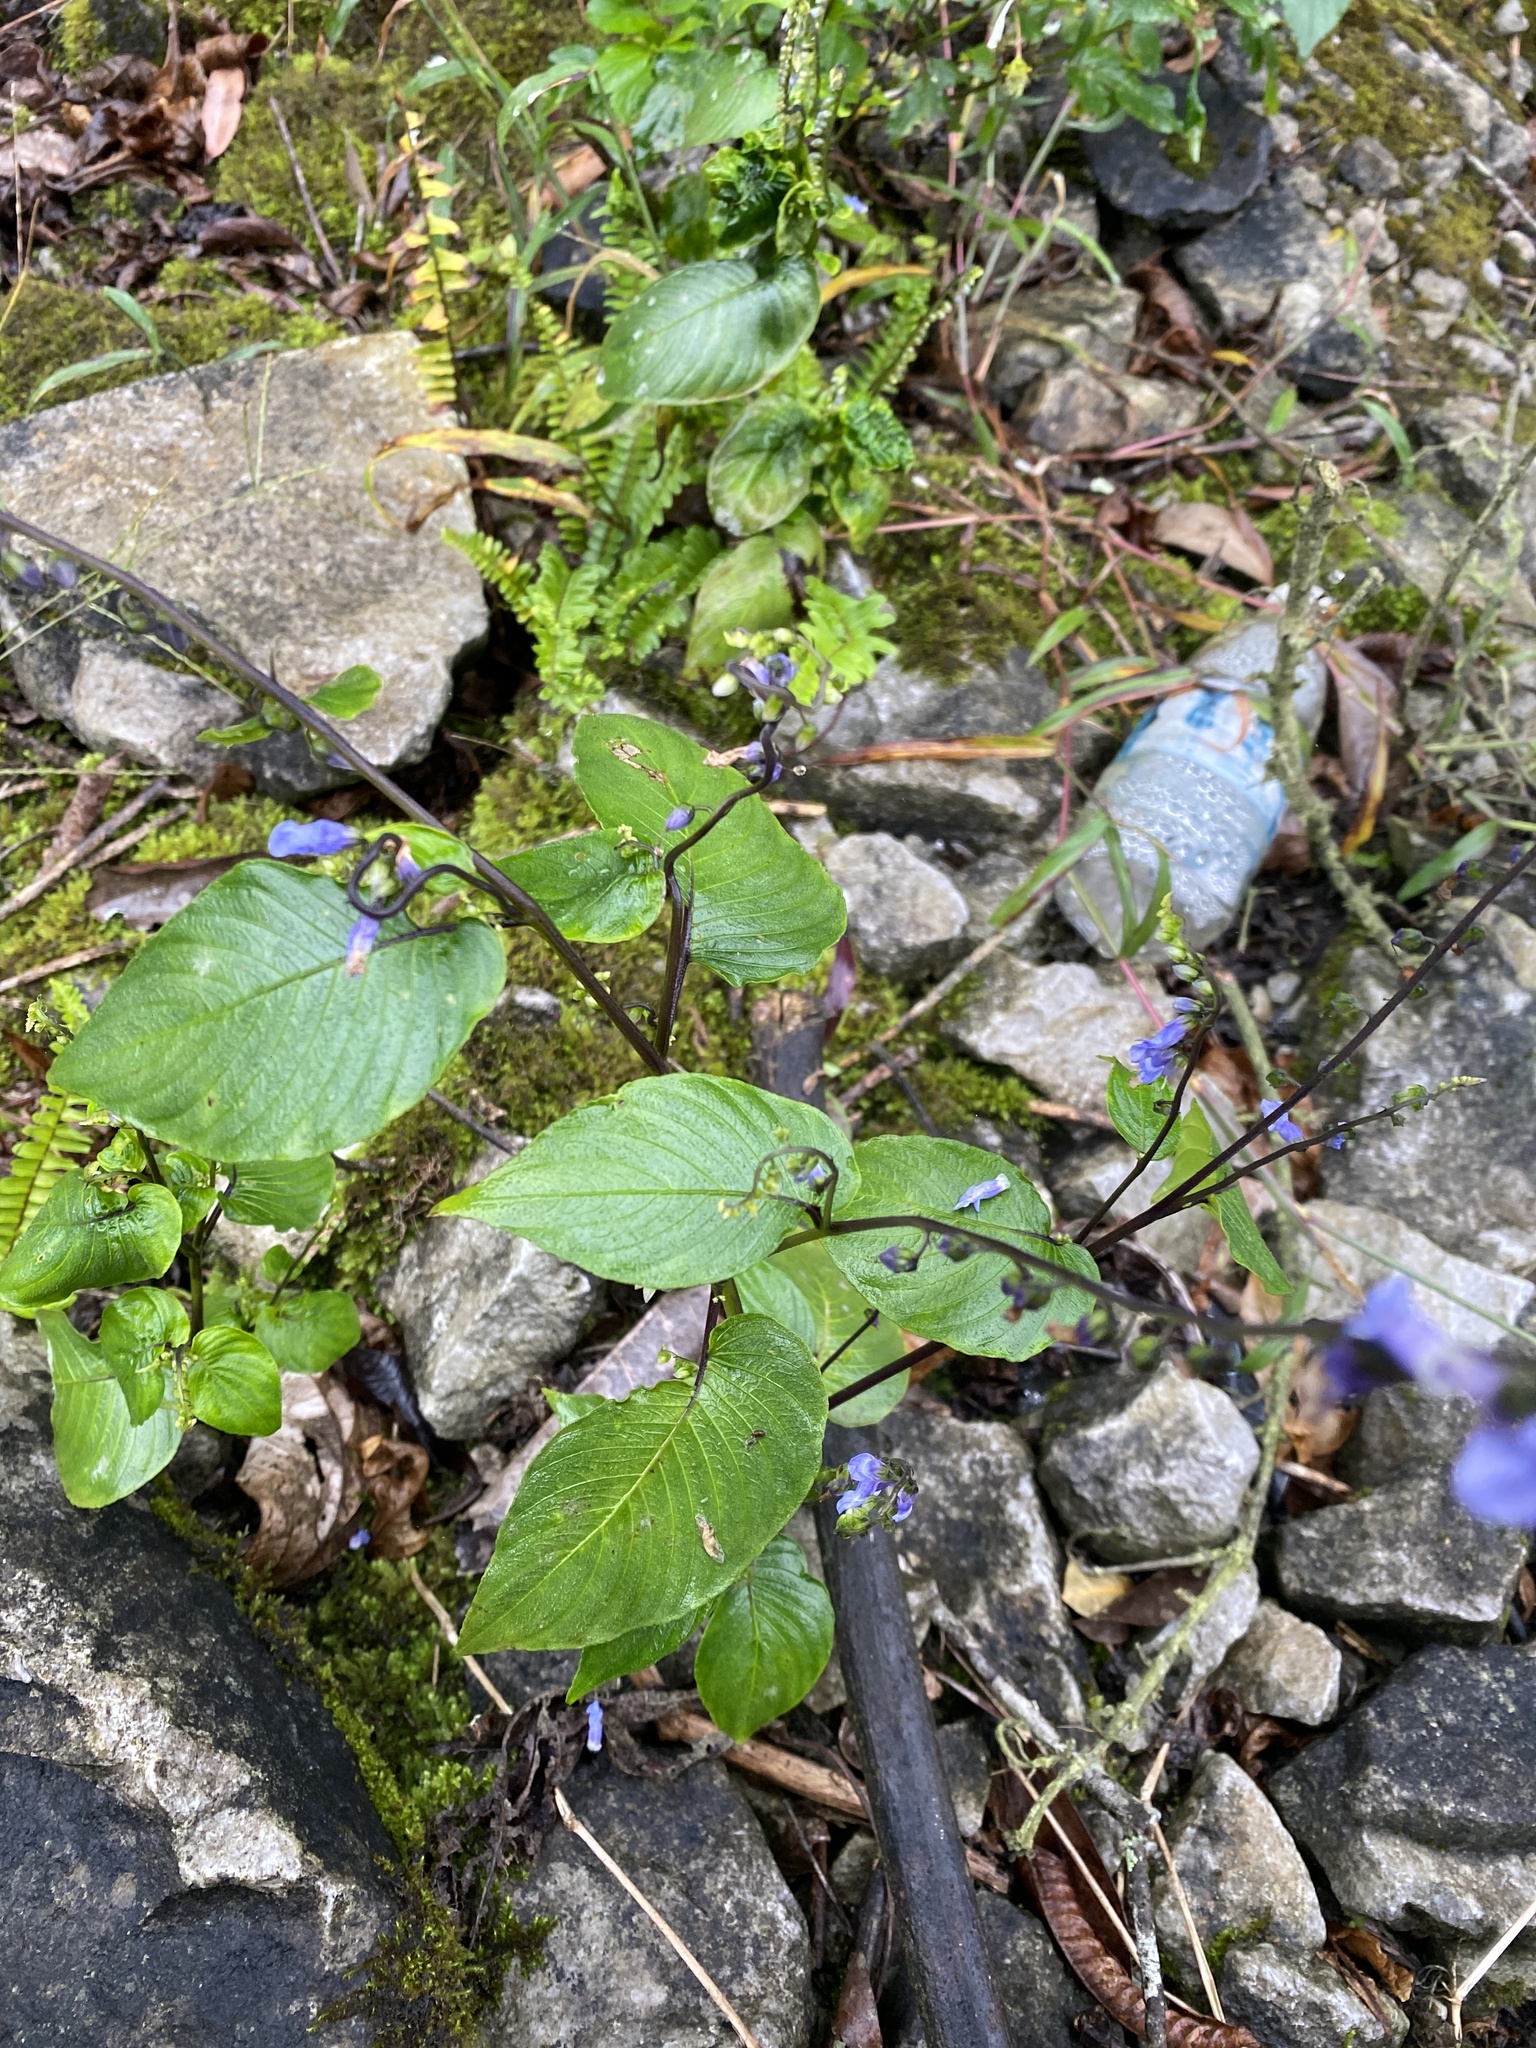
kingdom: Plantae
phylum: Tracheophyta
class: Magnoliopsida
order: Lamiales
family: Gesneriaceae
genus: Rhynchoglossum
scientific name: Rhynchoglossum obliquum
